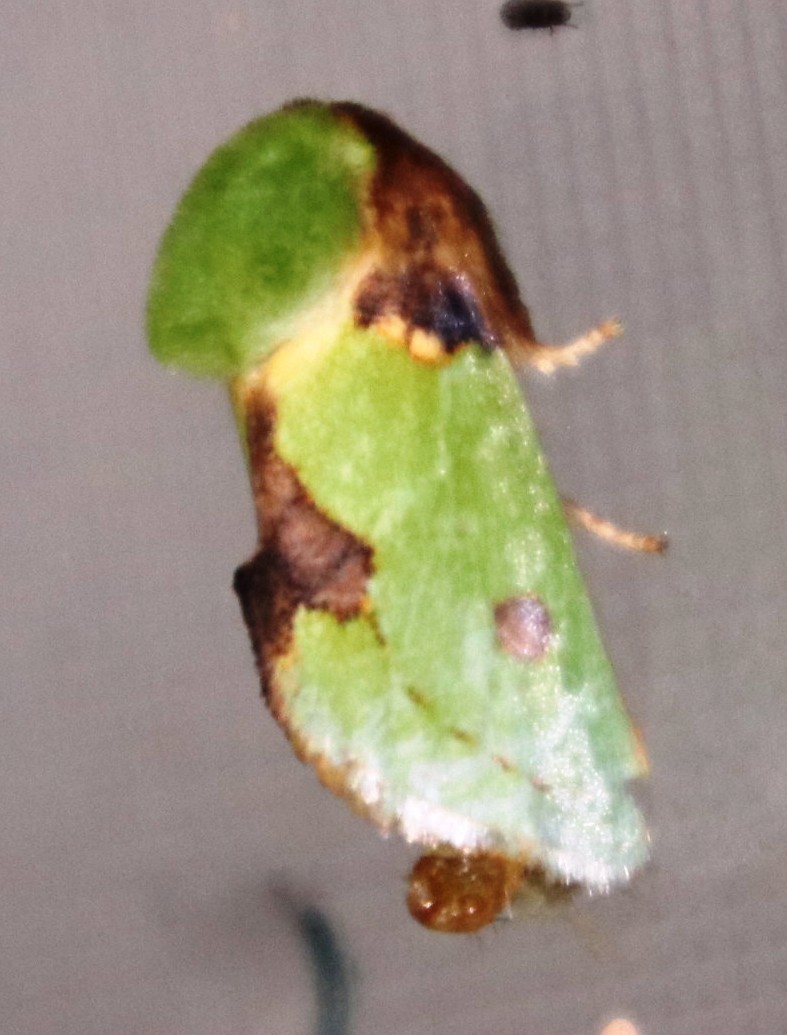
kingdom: Animalia
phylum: Arthropoda
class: Insecta
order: Lepidoptera
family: Limacodidae
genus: Parasa
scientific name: Parasa gemmans
